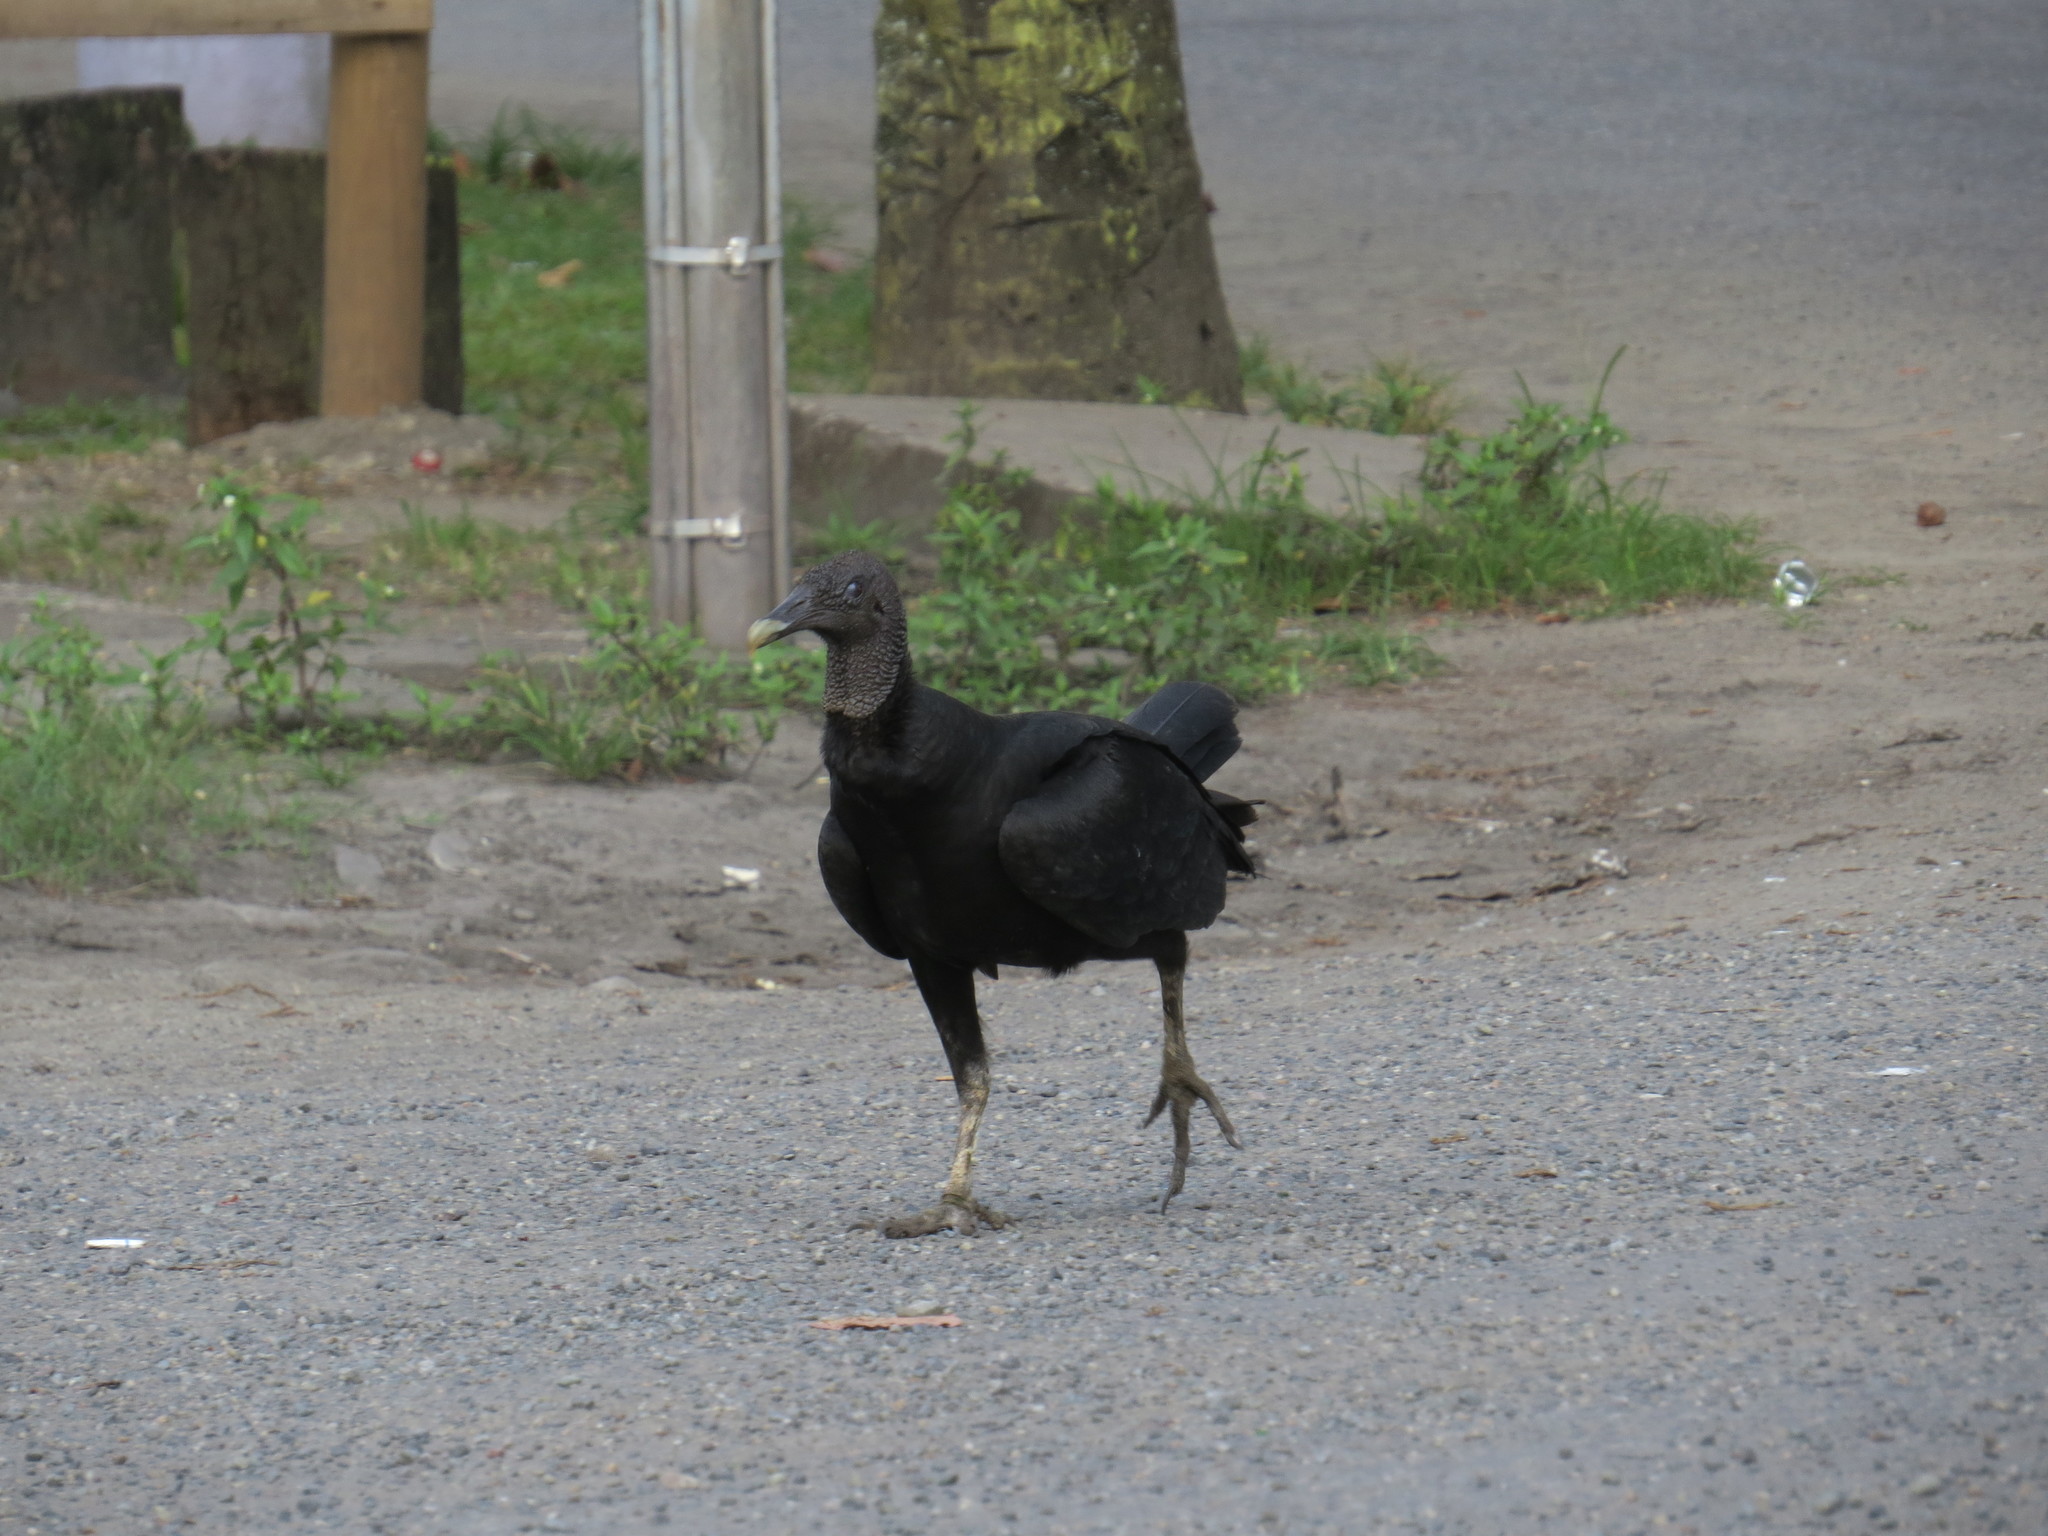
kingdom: Animalia
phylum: Chordata
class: Aves
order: Accipitriformes
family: Cathartidae
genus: Coragyps
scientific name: Coragyps atratus
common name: Black vulture
